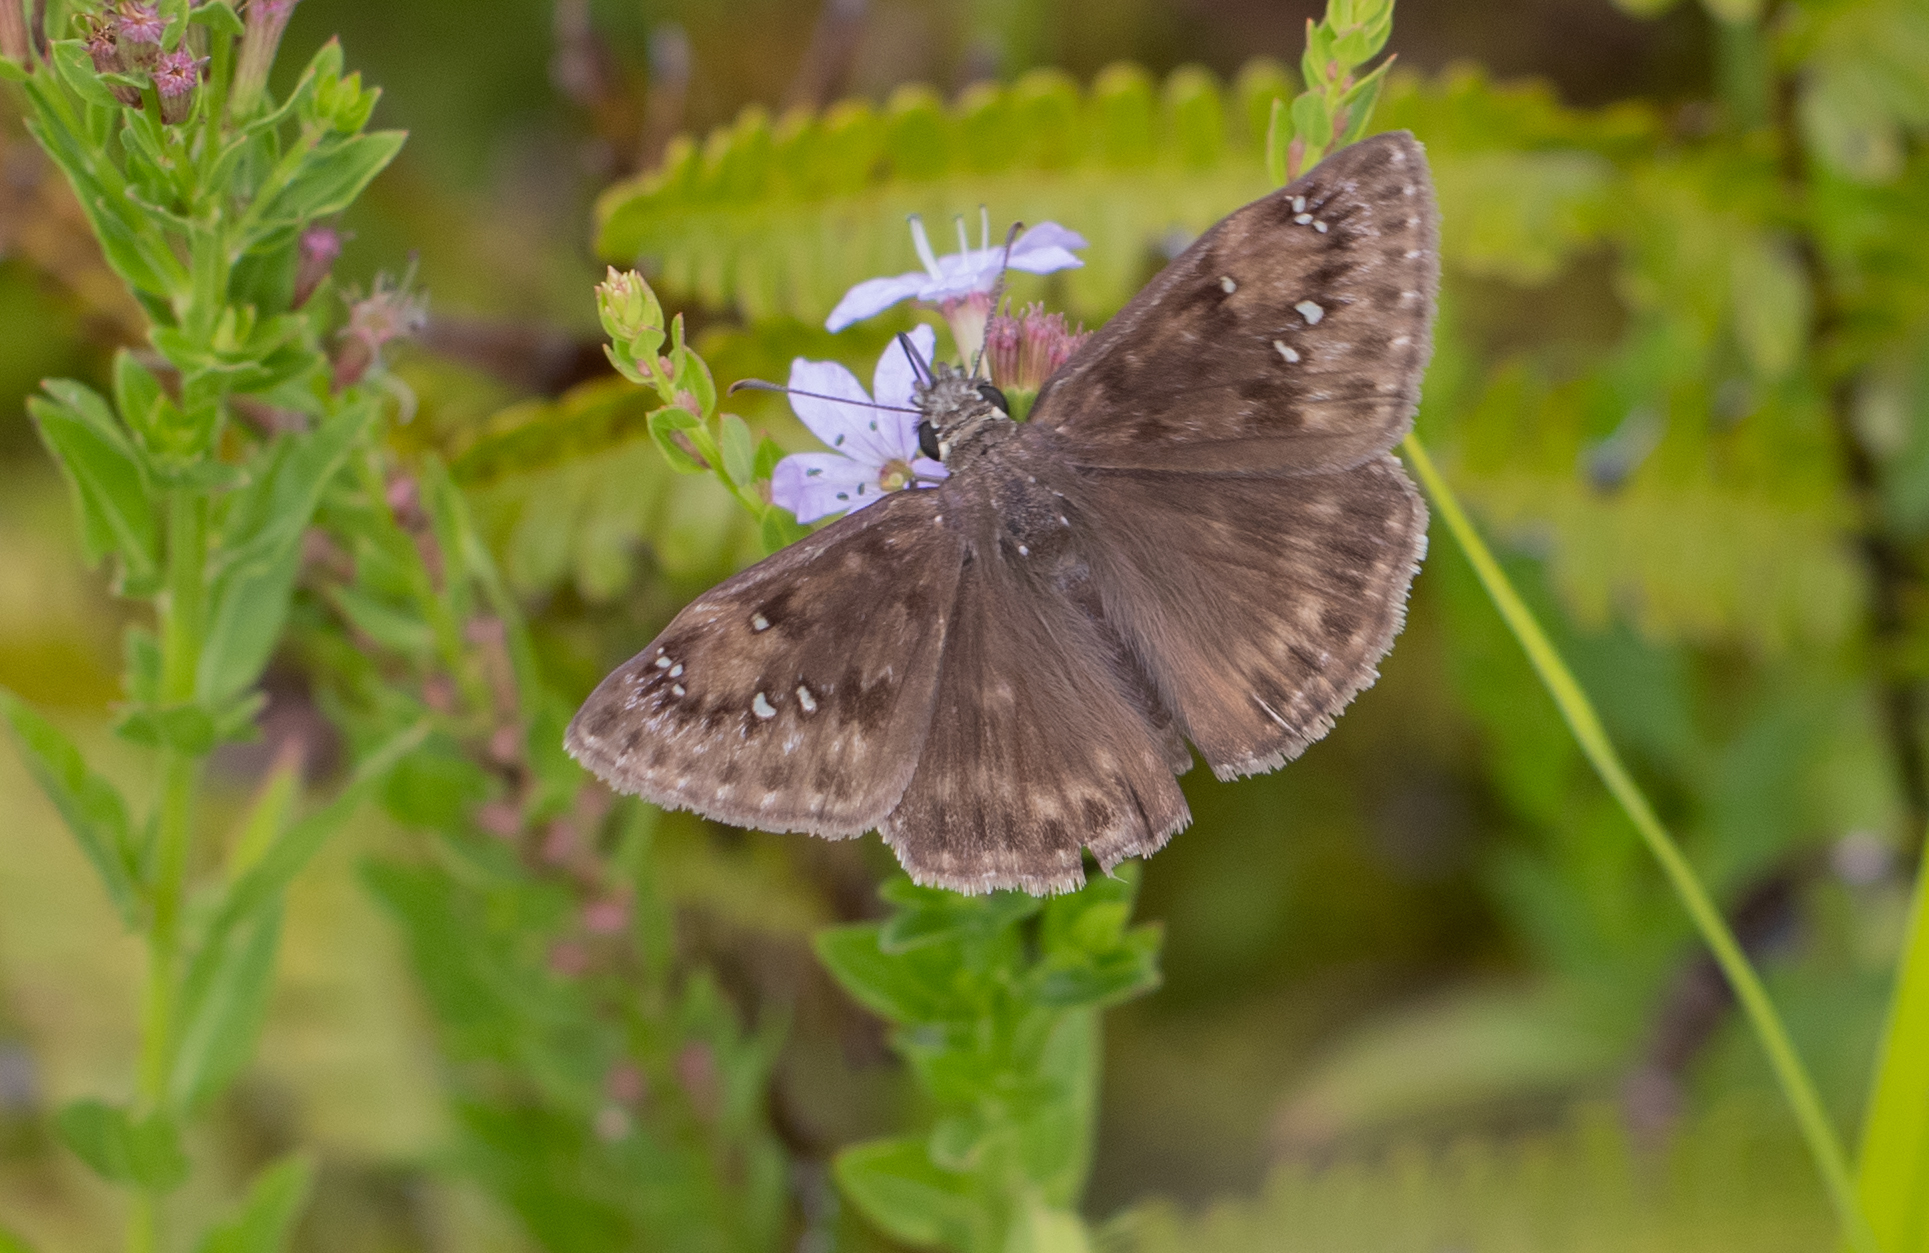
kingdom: Animalia
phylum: Arthropoda
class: Insecta
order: Lepidoptera
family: Hesperiidae
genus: Erynnis
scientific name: Erynnis horatius
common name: Horace's duskywing
